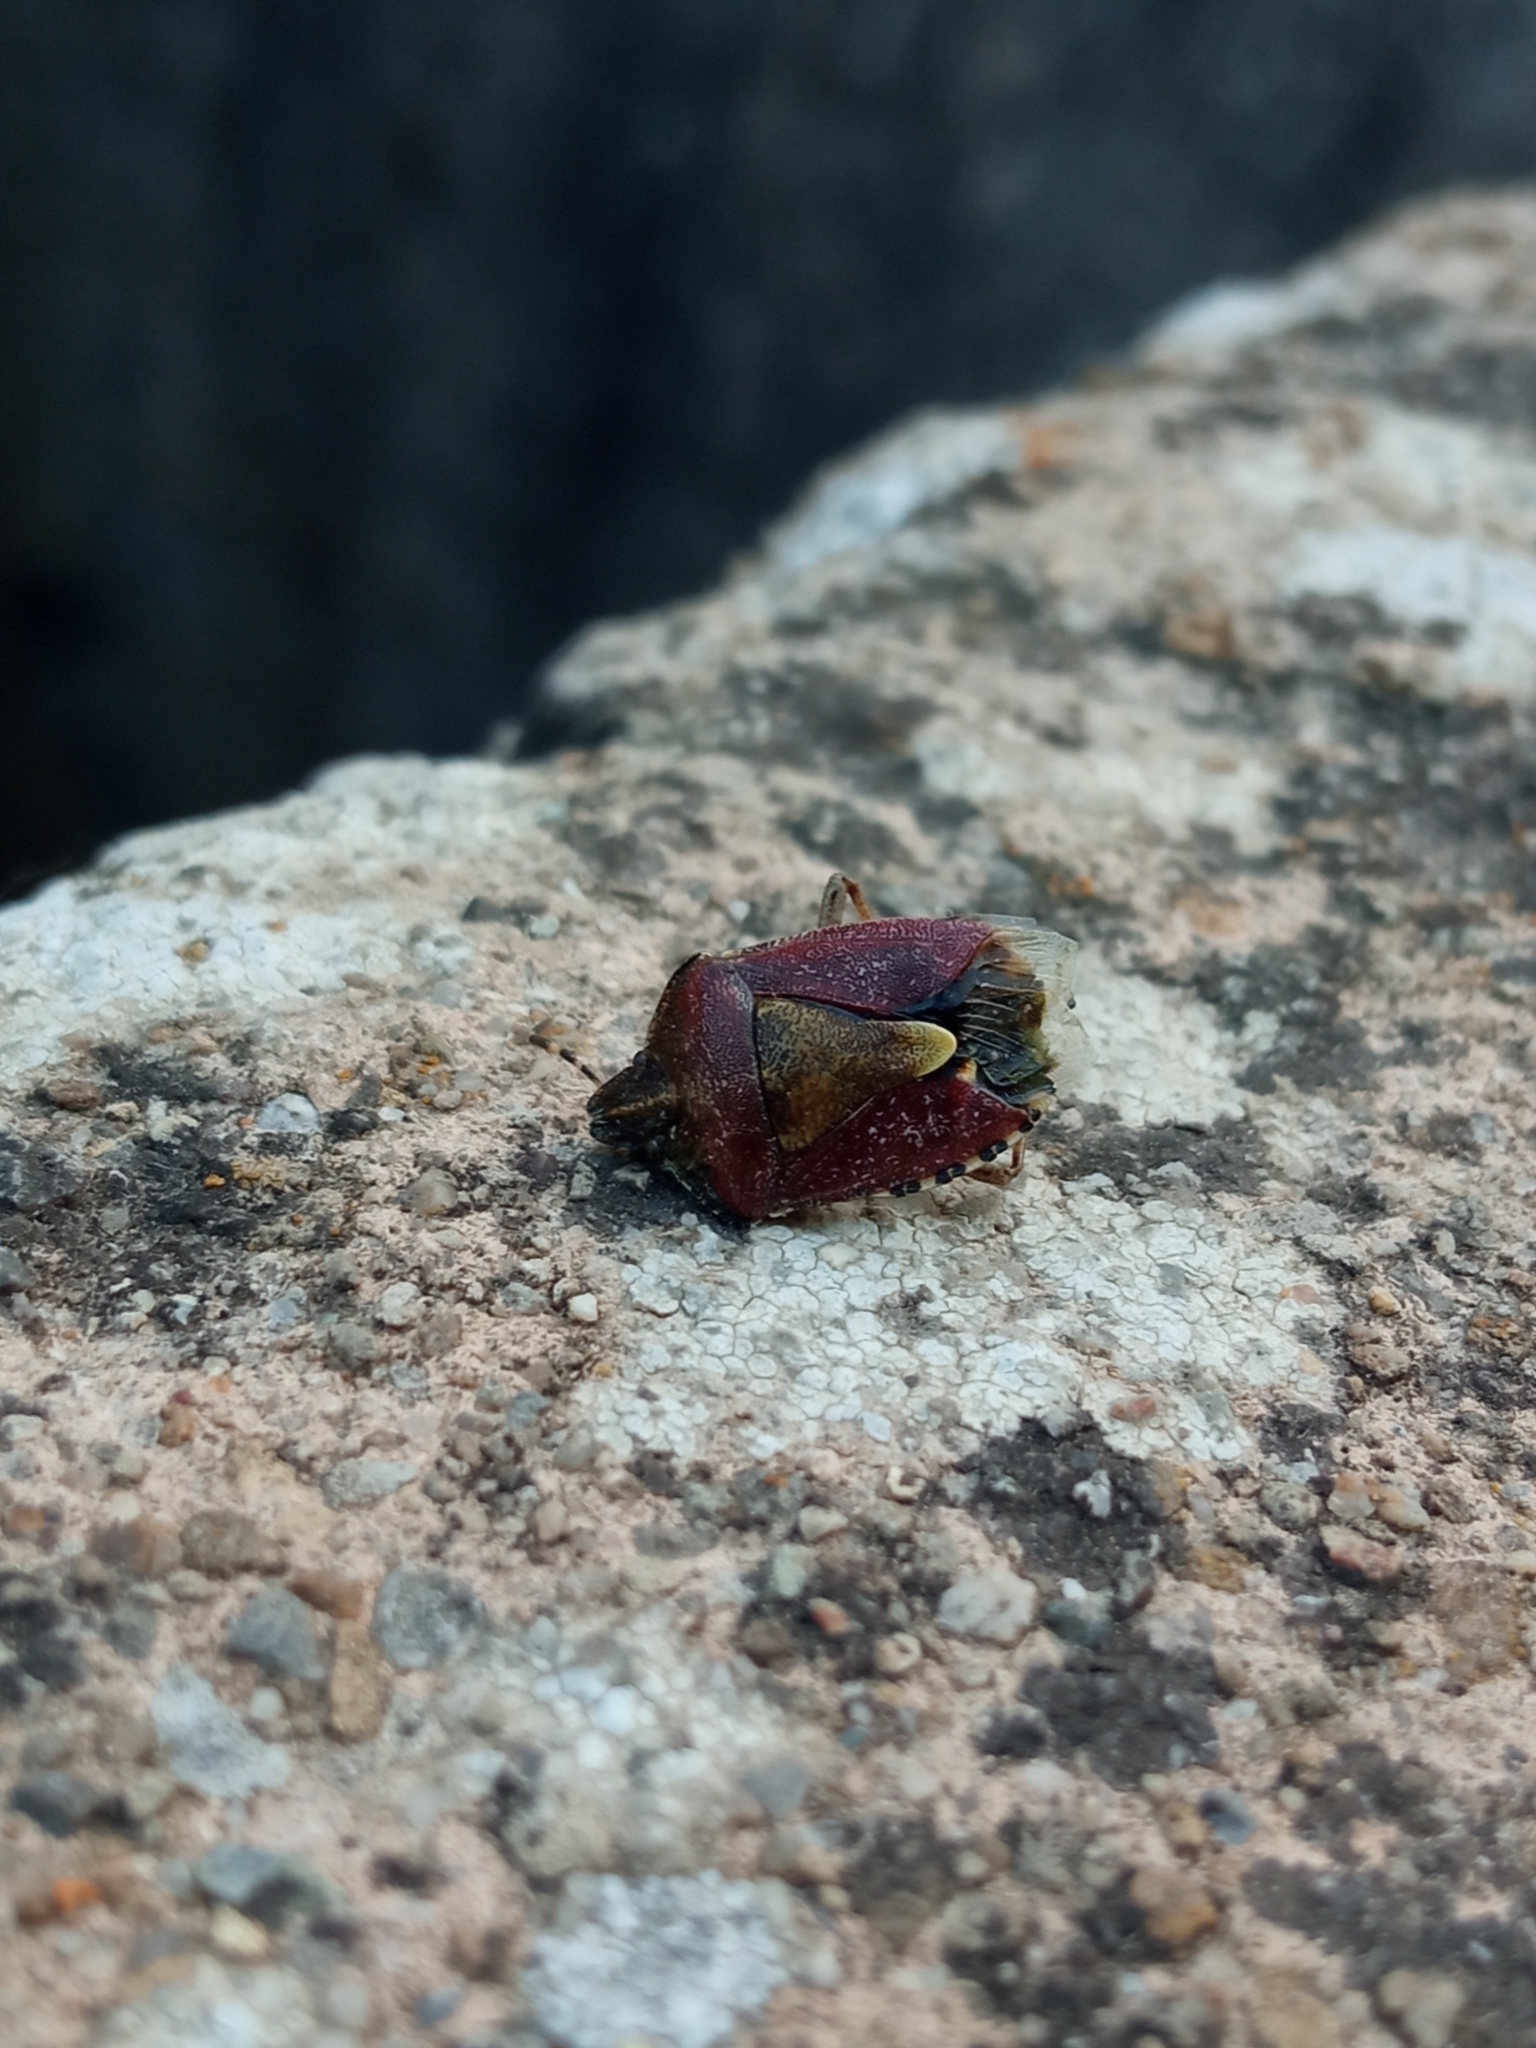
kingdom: Animalia
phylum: Arthropoda
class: Insecta
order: Hemiptera
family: Pentatomidae
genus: Dolycoris
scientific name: Dolycoris baccarum
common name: Sloe bug
